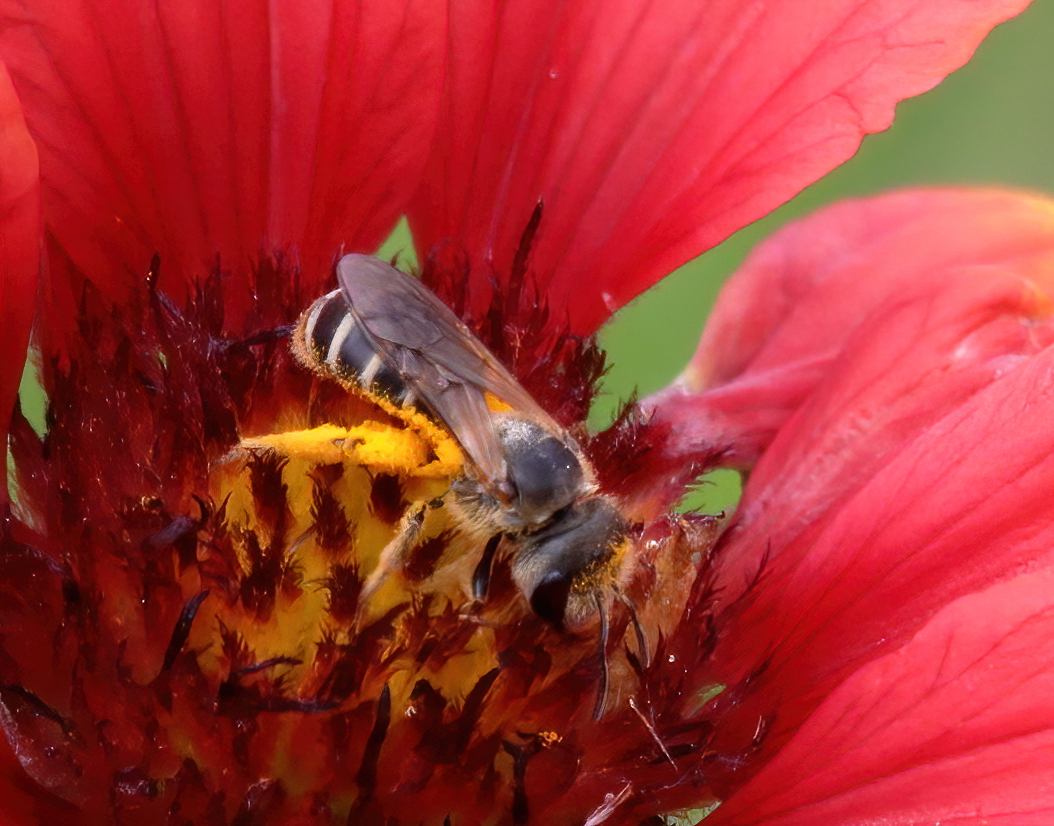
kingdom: Animalia
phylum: Arthropoda
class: Insecta
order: Hymenoptera
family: Halictidae
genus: Halictus
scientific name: Halictus poeyi
